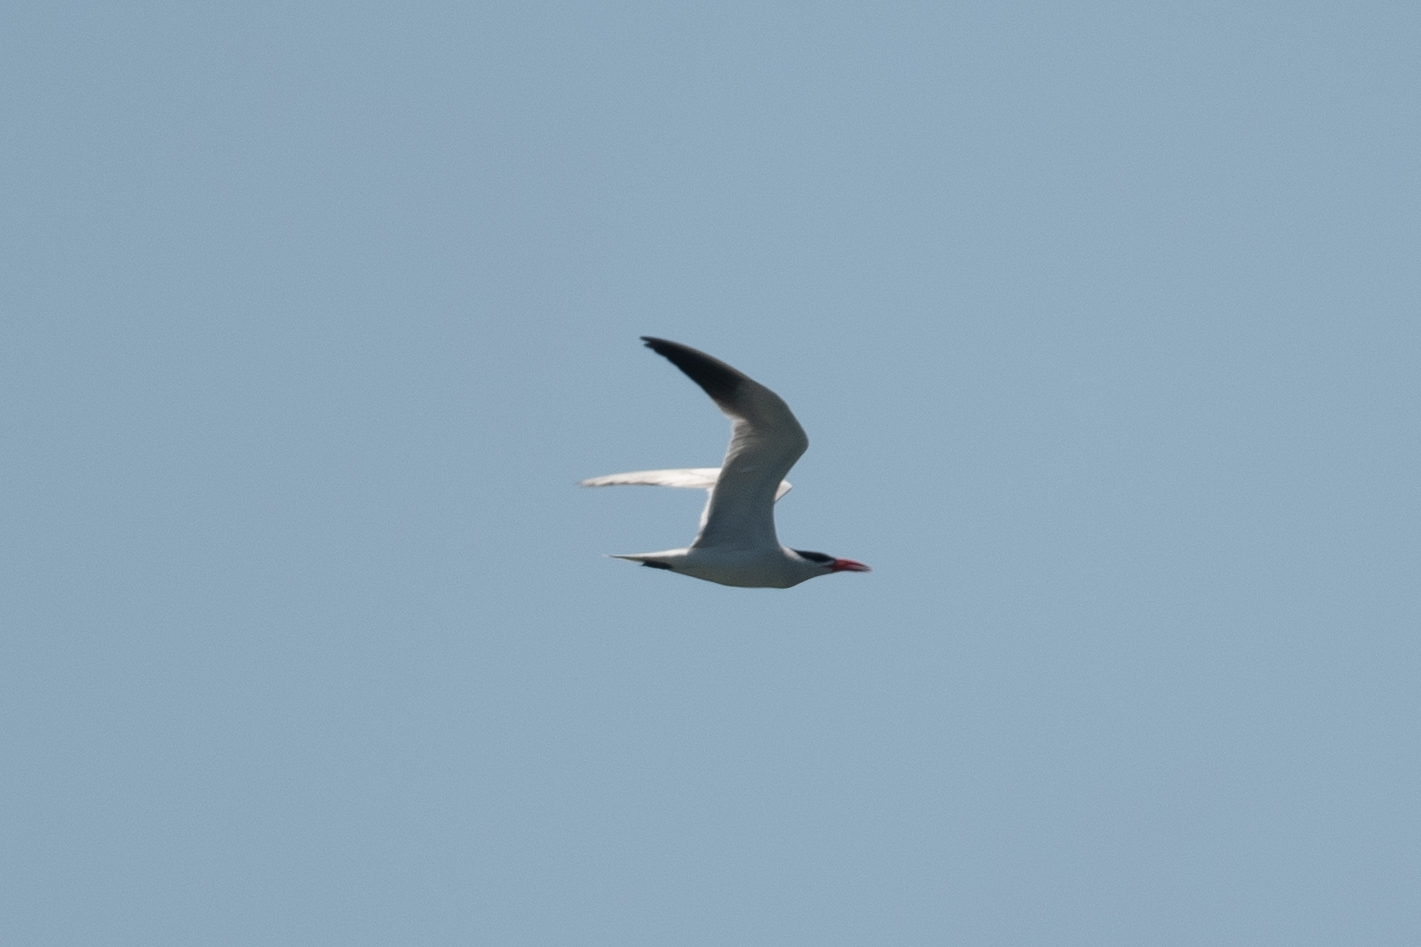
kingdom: Animalia
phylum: Chordata
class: Aves
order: Charadriiformes
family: Laridae
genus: Hydroprogne
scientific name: Hydroprogne caspia
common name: Caspian tern
